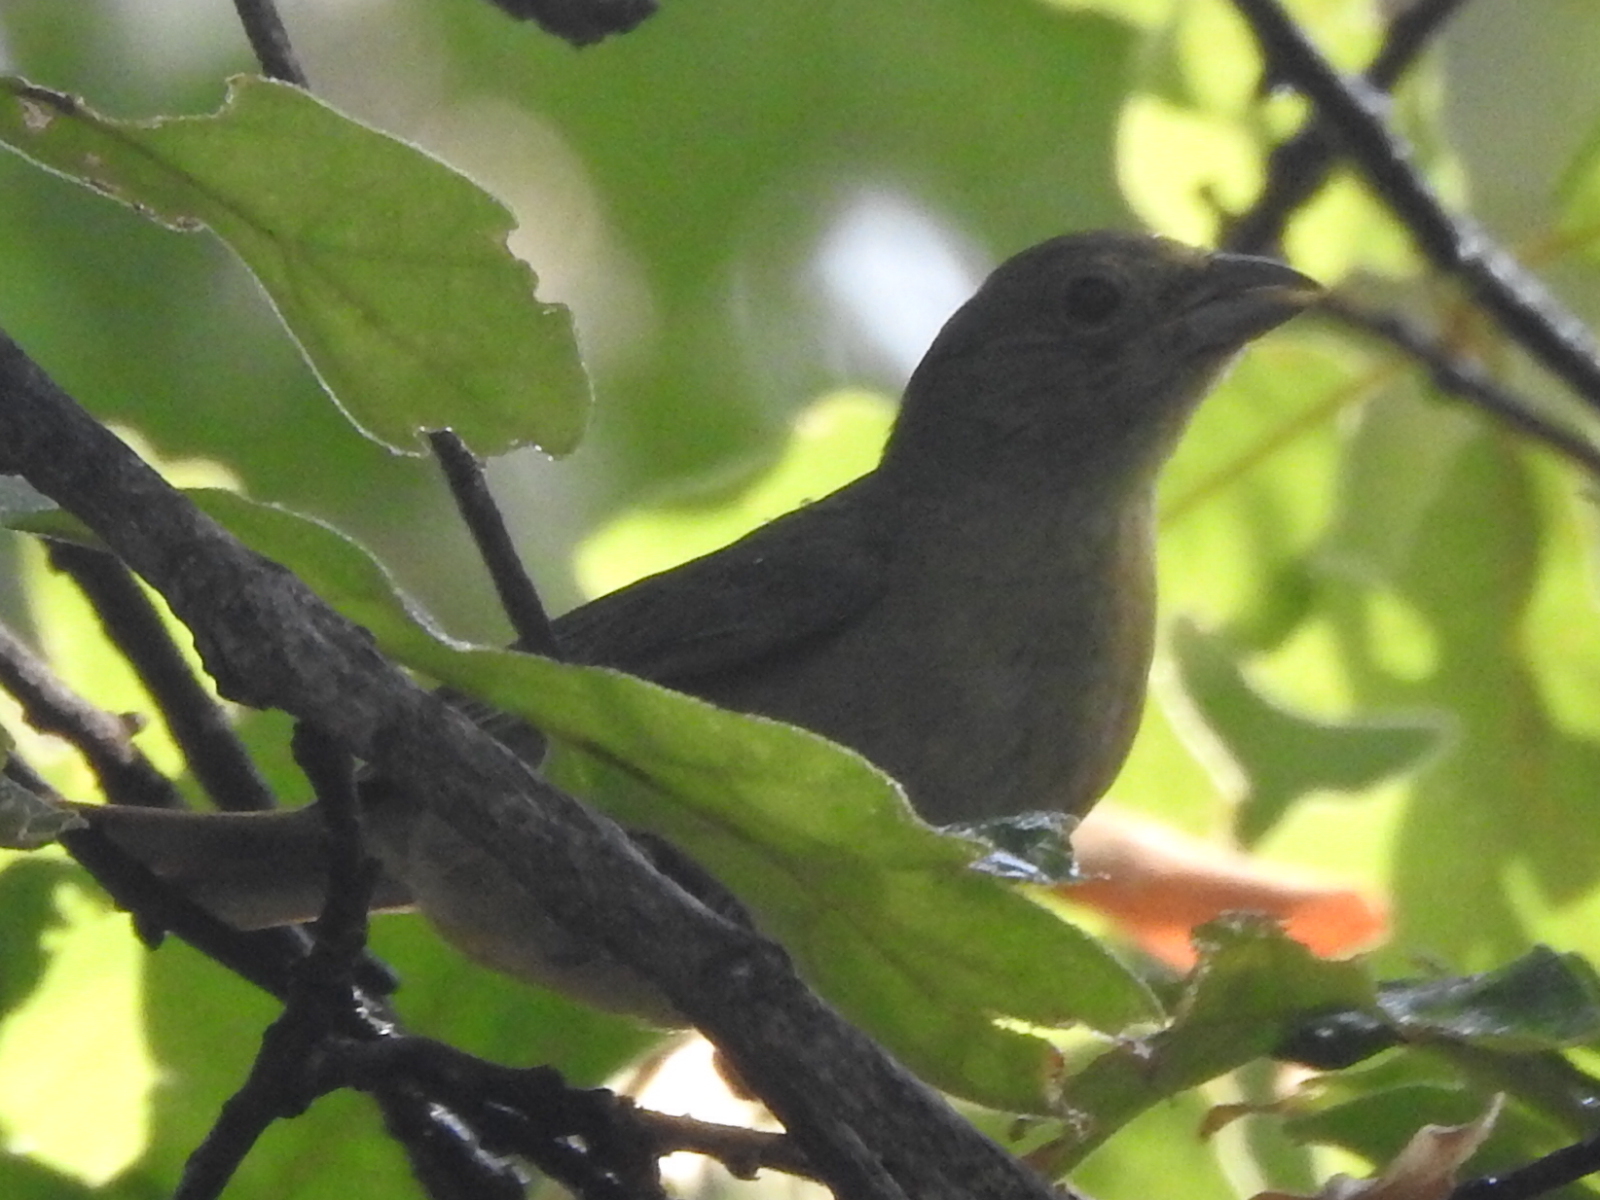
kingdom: Animalia
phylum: Chordata
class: Aves
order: Passeriformes
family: Cardinalidae
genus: Passerina
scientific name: Passerina ciris
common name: Painted bunting
